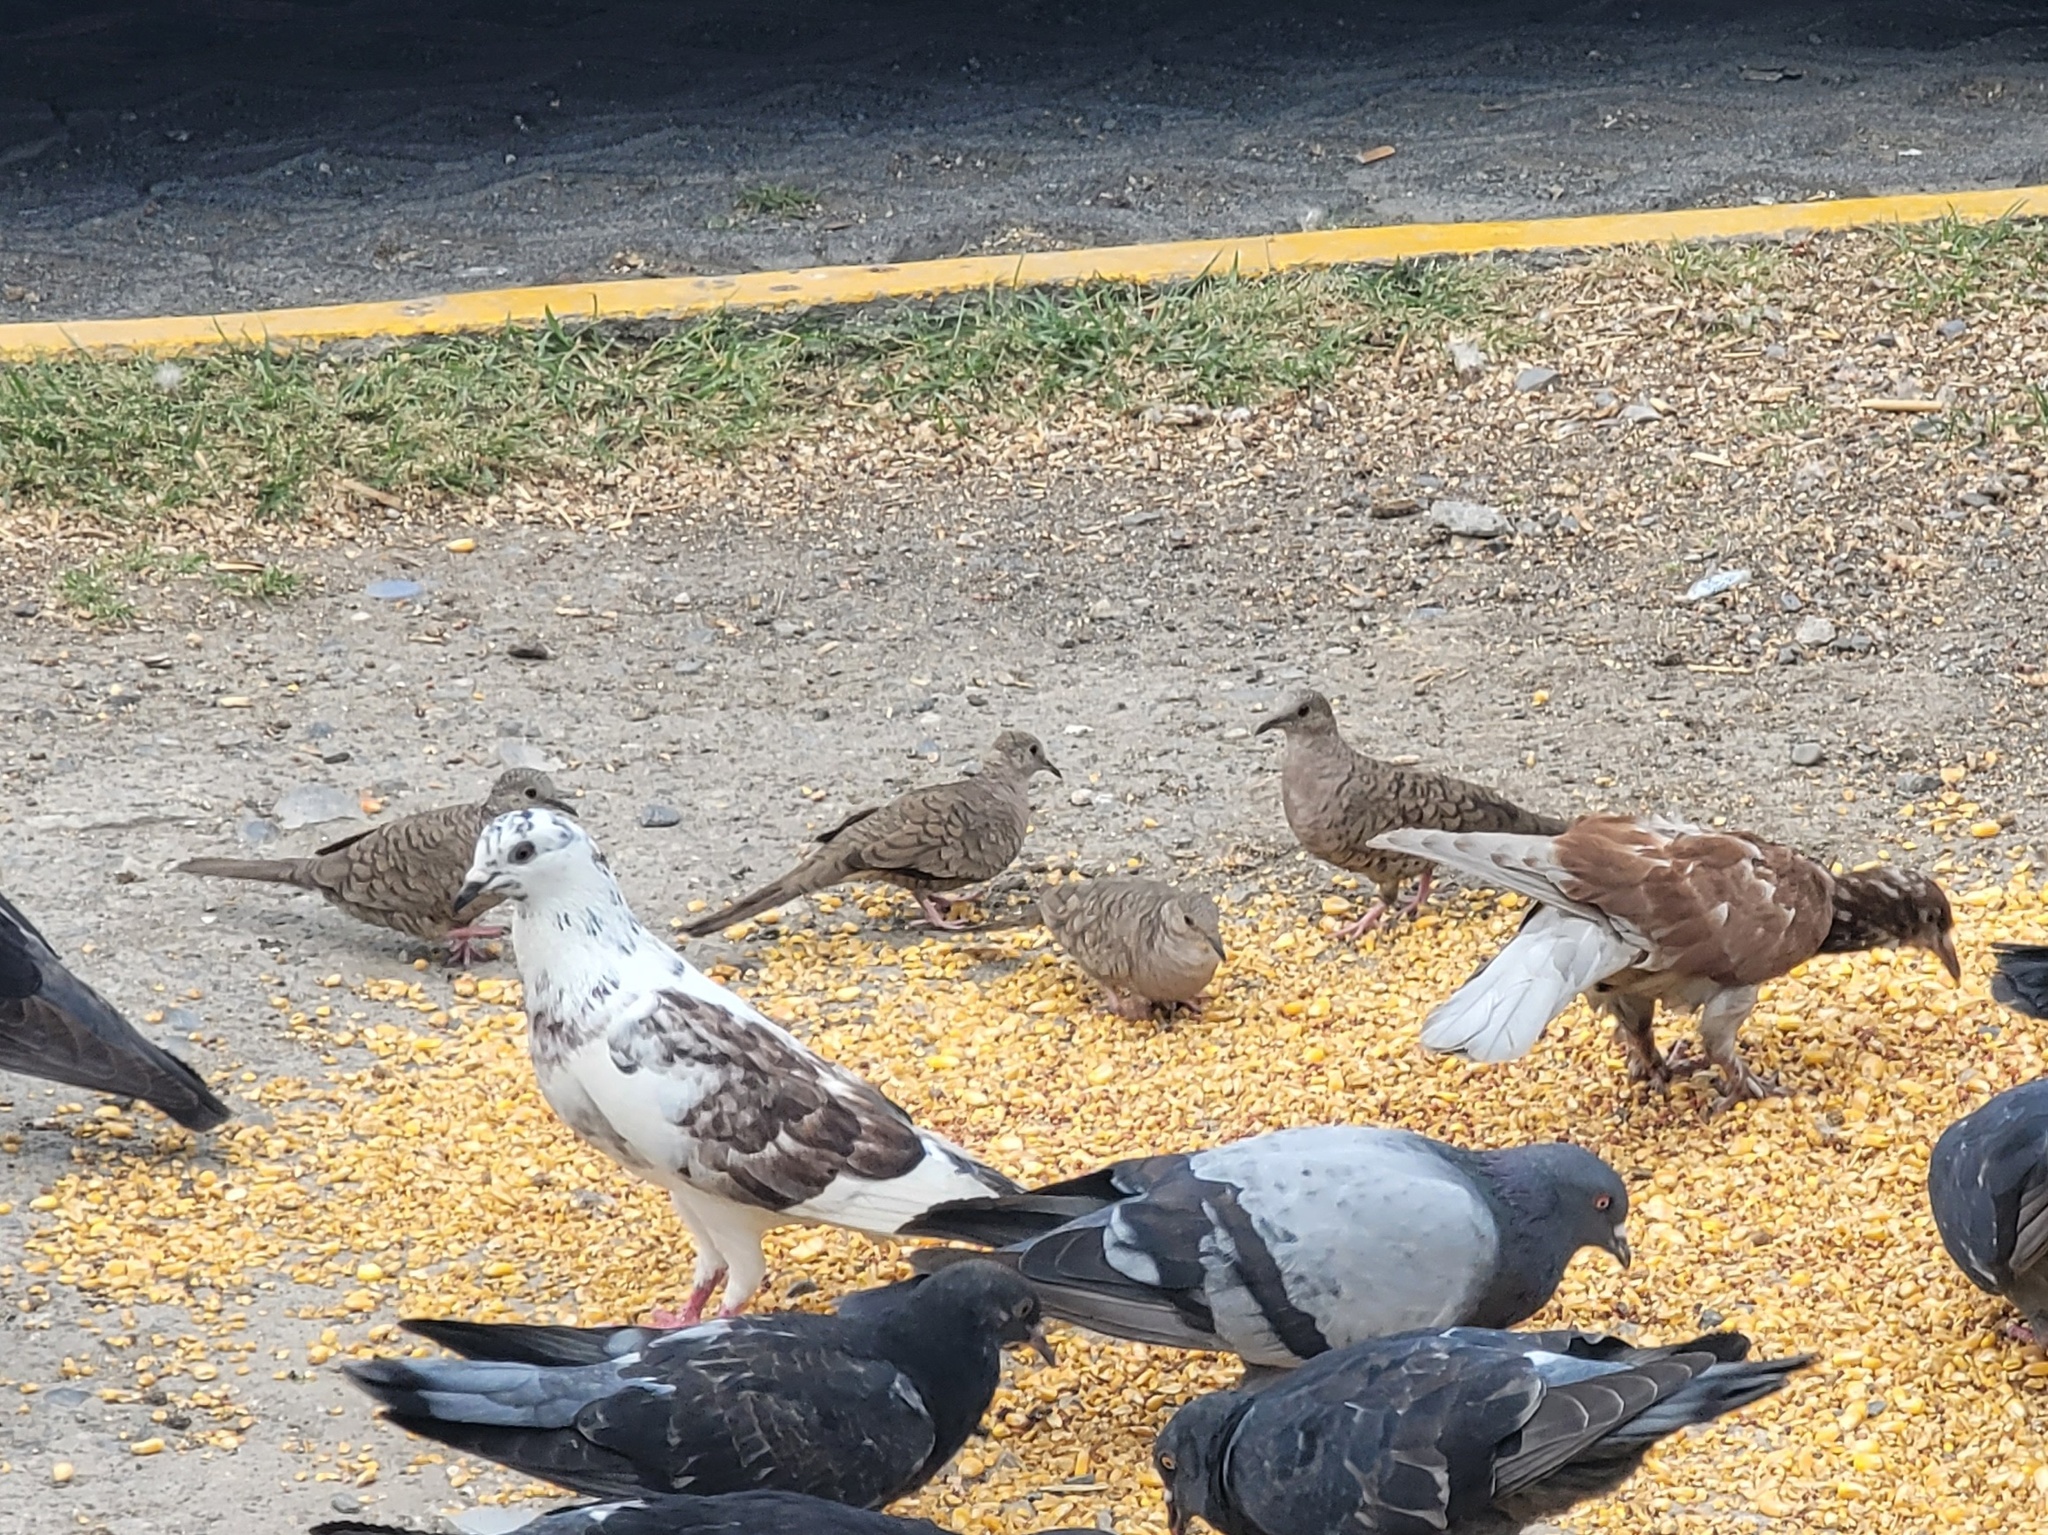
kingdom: Animalia
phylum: Chordata
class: Aves
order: Columbiformes
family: Columbidae
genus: Columbina
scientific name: Columbina inca
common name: Inca dove
